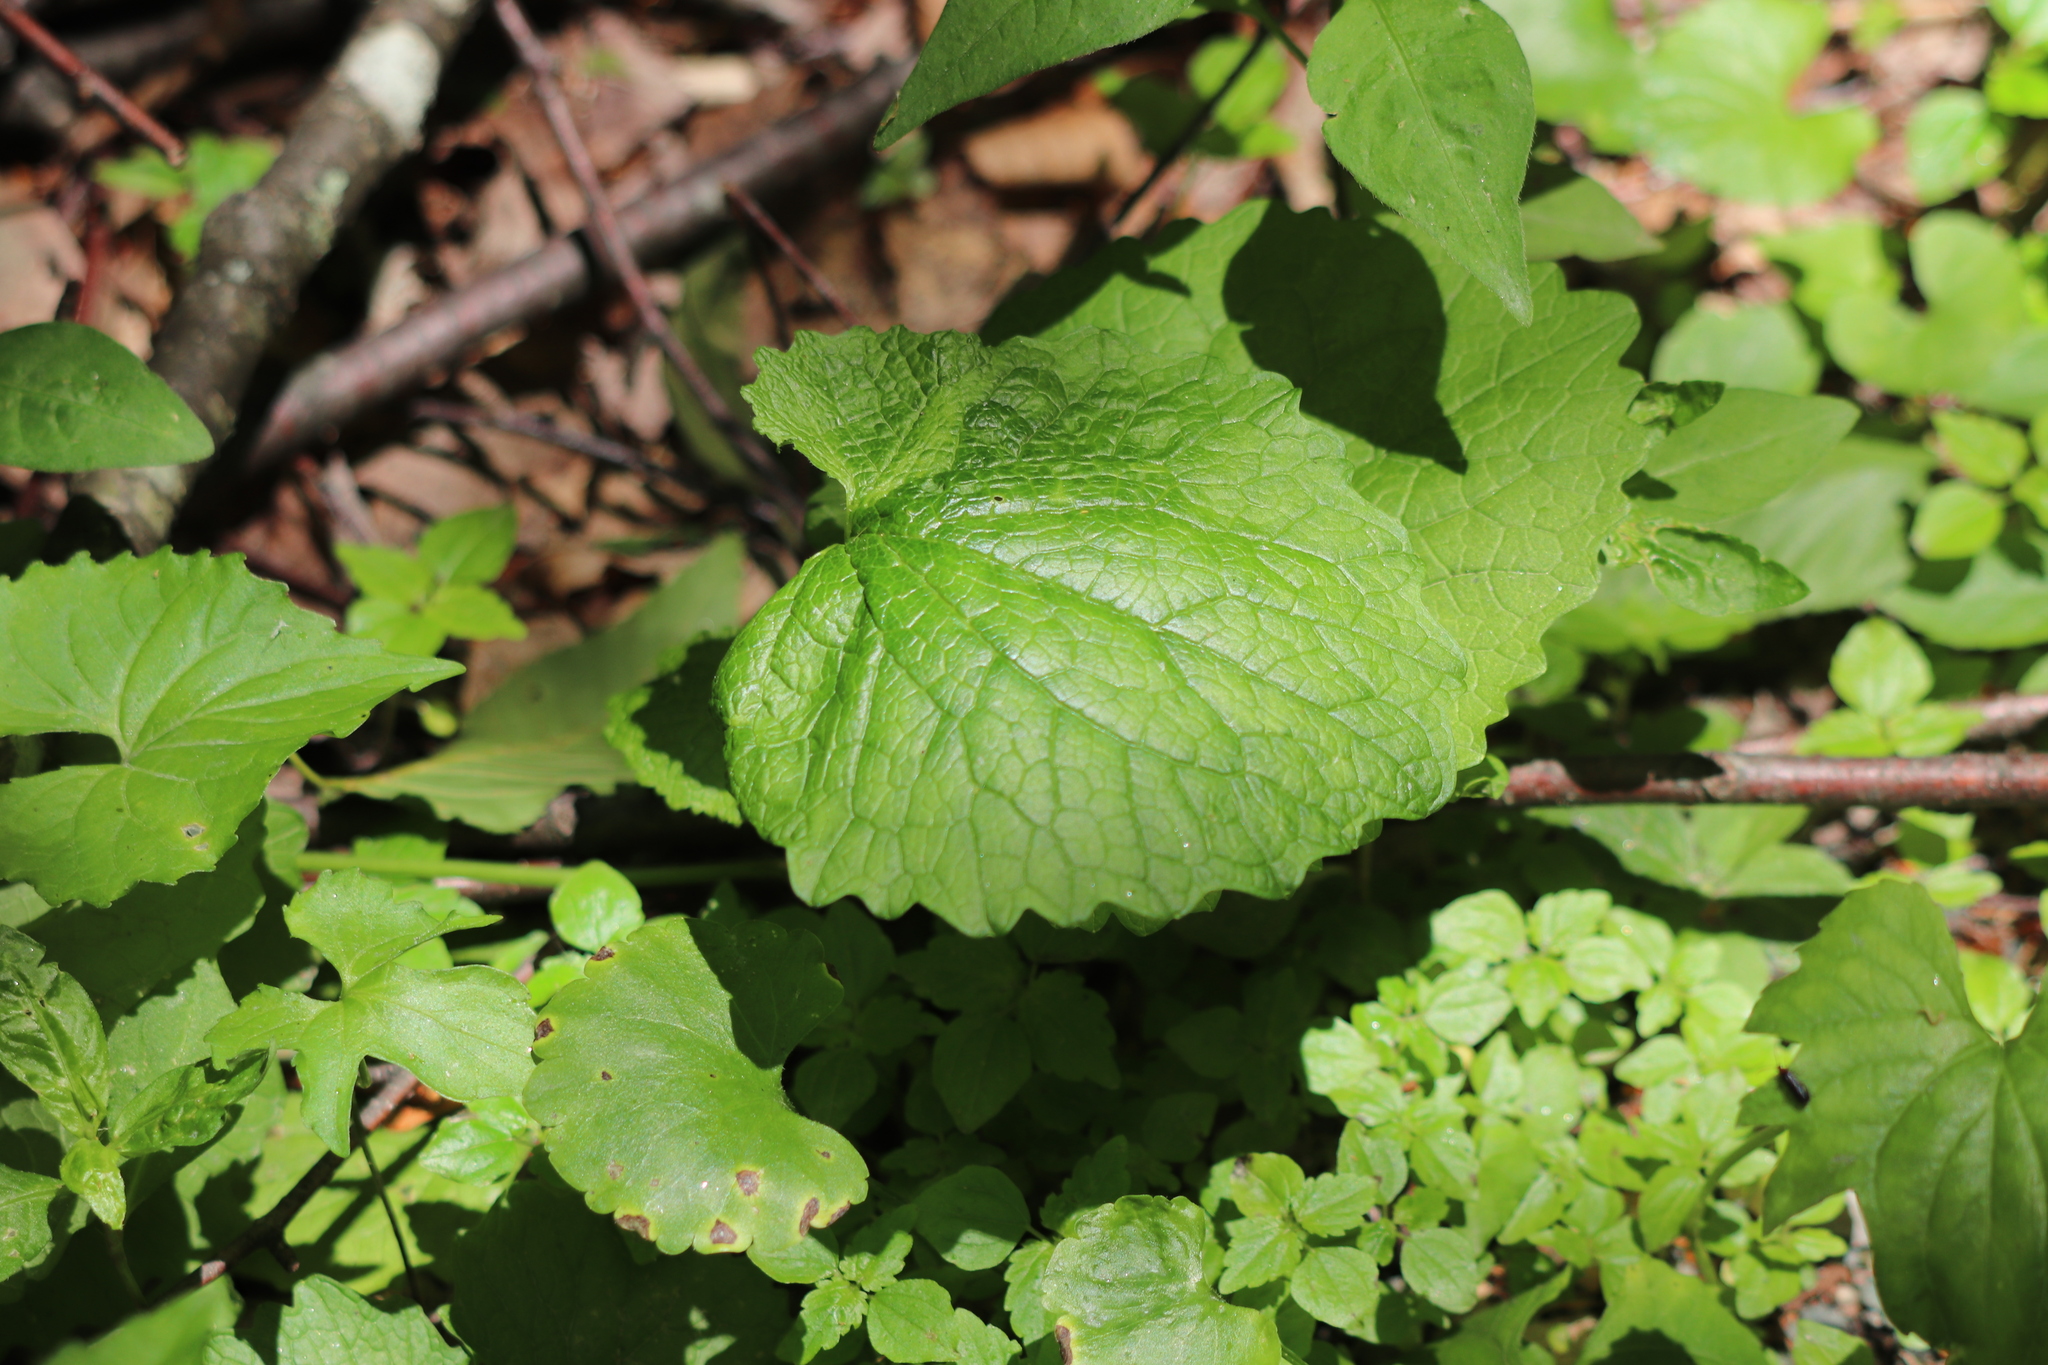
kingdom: Plantae
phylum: Tracheophyta
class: Magnoliopsida
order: Brassicales
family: Brassicaceae
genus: Alliaria
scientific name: Alliaria petiolata
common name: Garlic mustard
